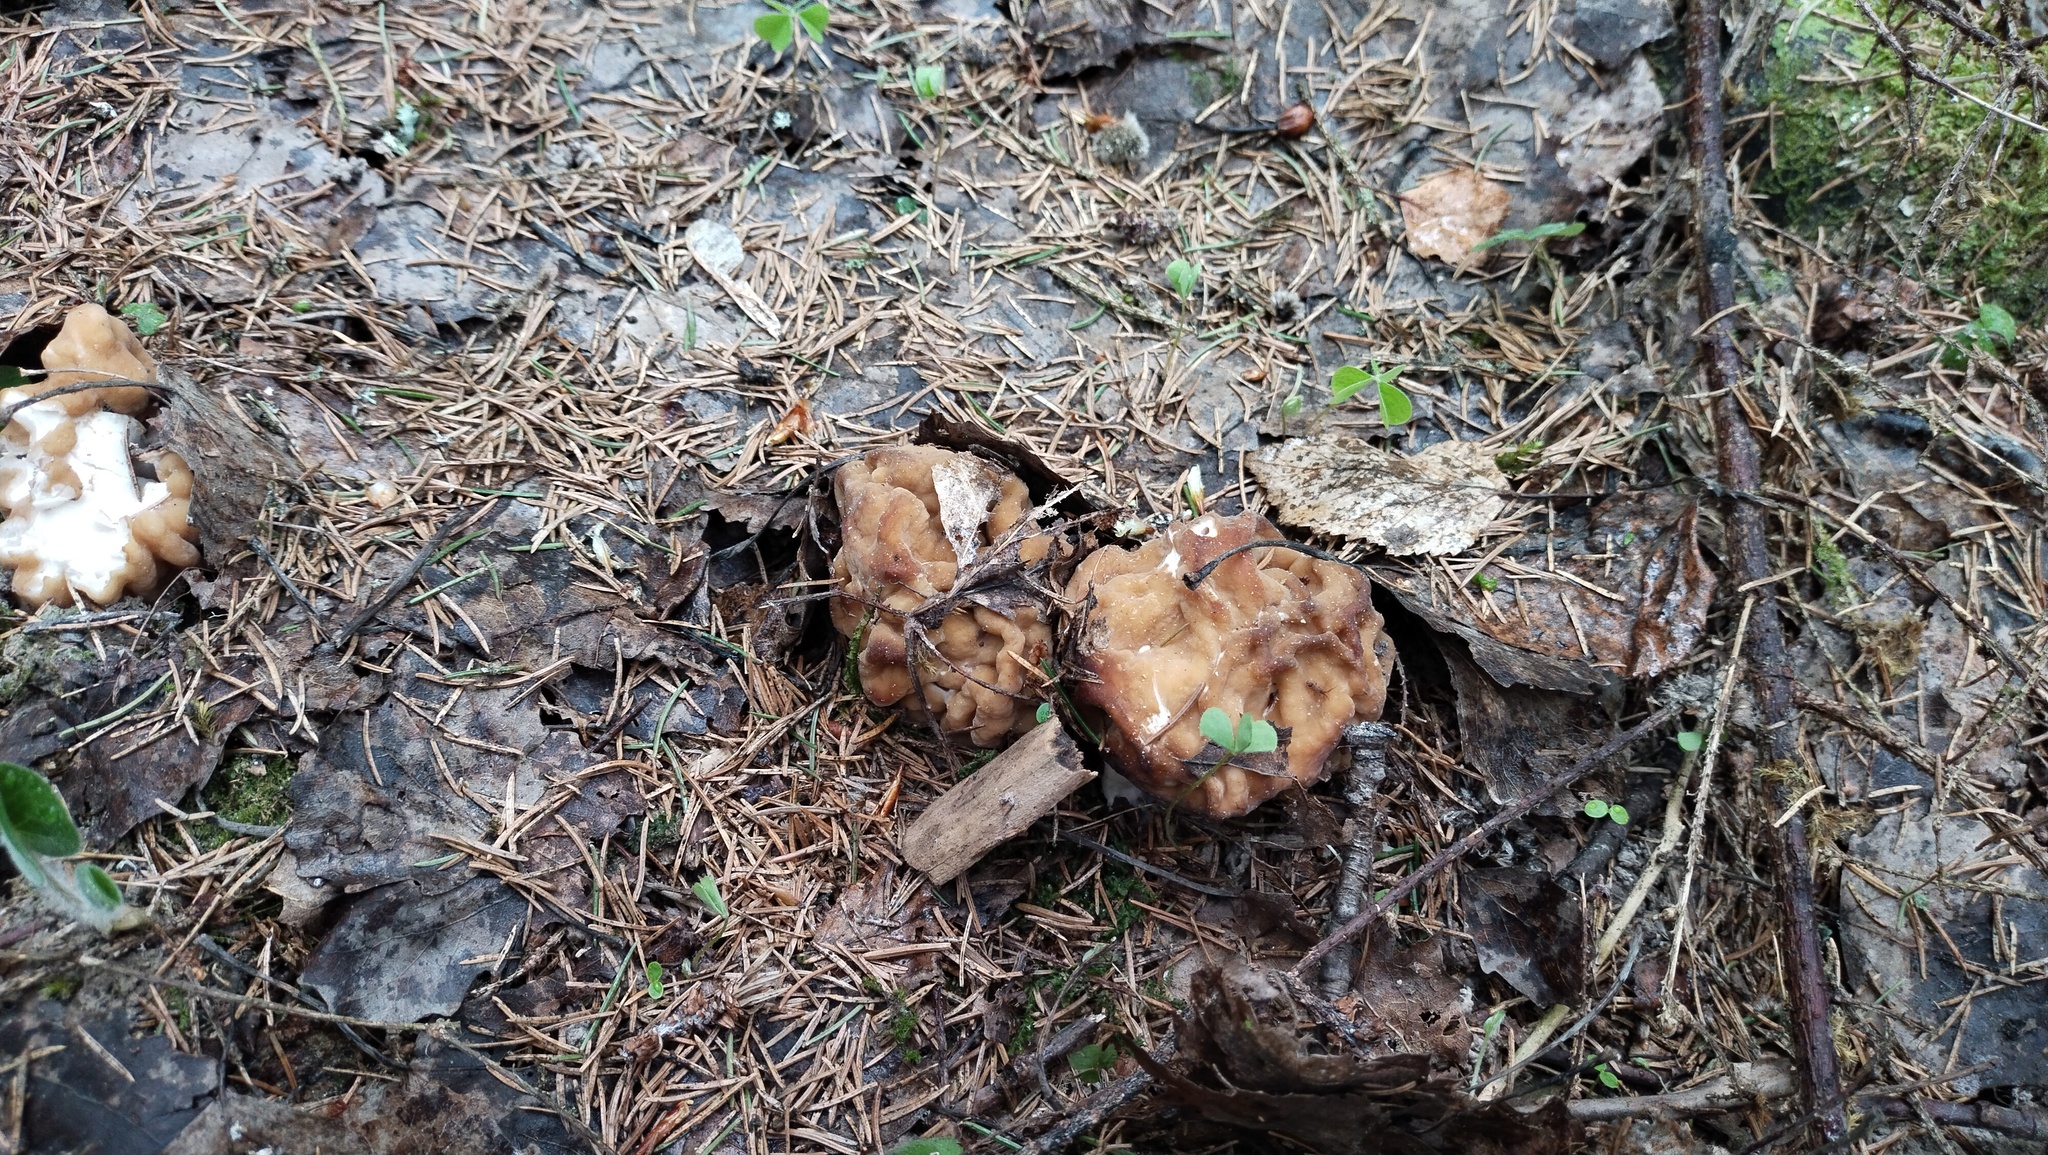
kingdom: Fungi
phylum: Ascomycota
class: Pezizomycetes
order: Pezizales
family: Discinaceae
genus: Gyromitra
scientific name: Gyromitra gigas
